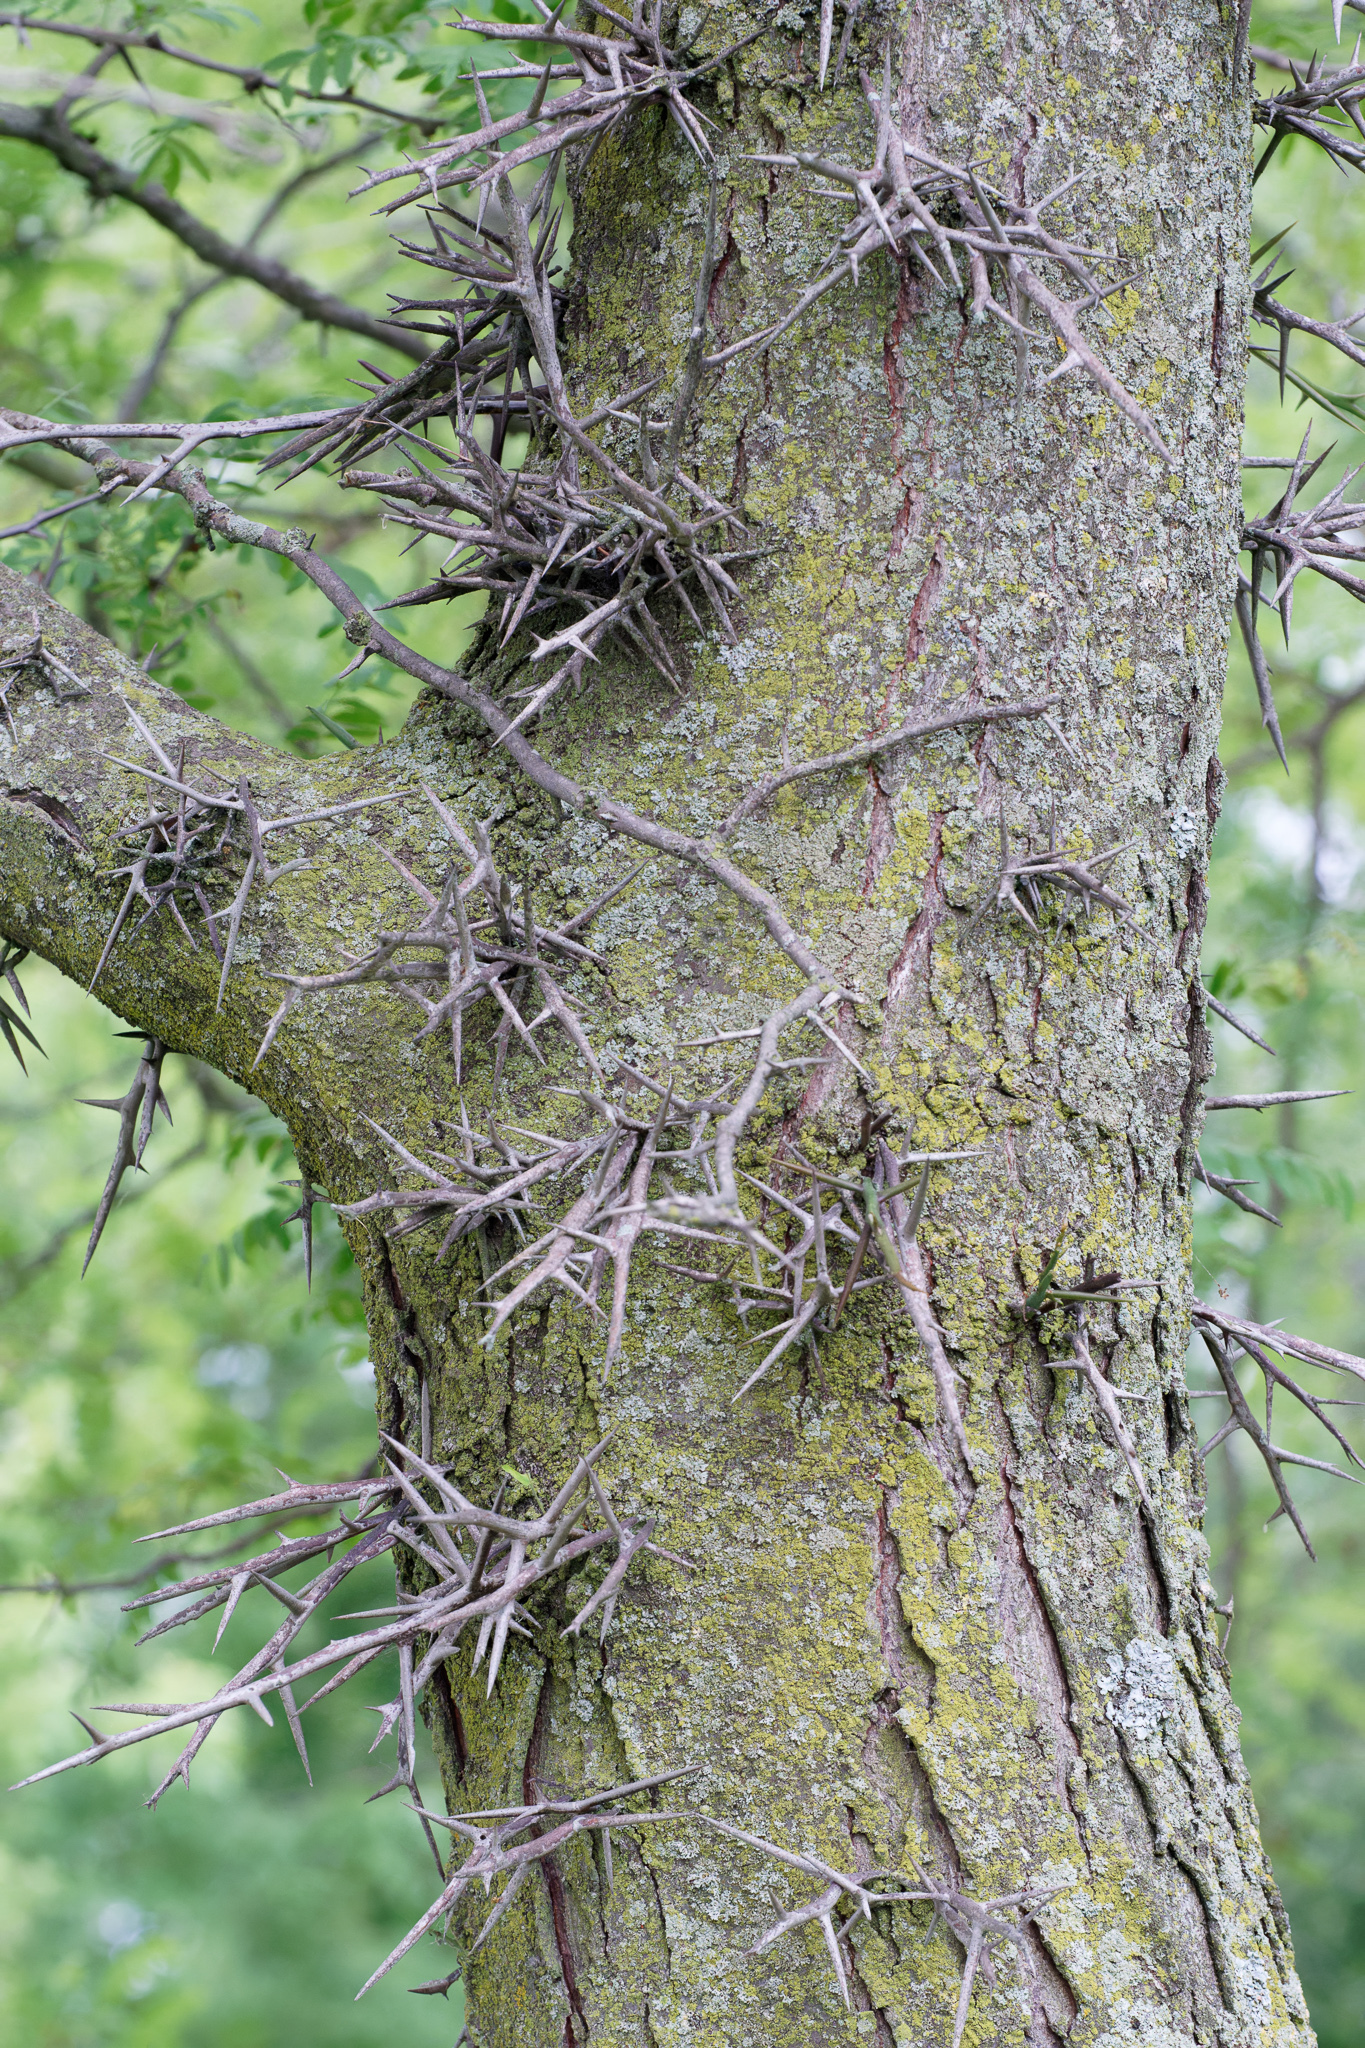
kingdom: Plantae
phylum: Tracheophyta
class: Magnoliopsida
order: Fabales
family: Fabaceae
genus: Gleditsia
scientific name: Gleditsia triacanthos
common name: Common honeylocust
